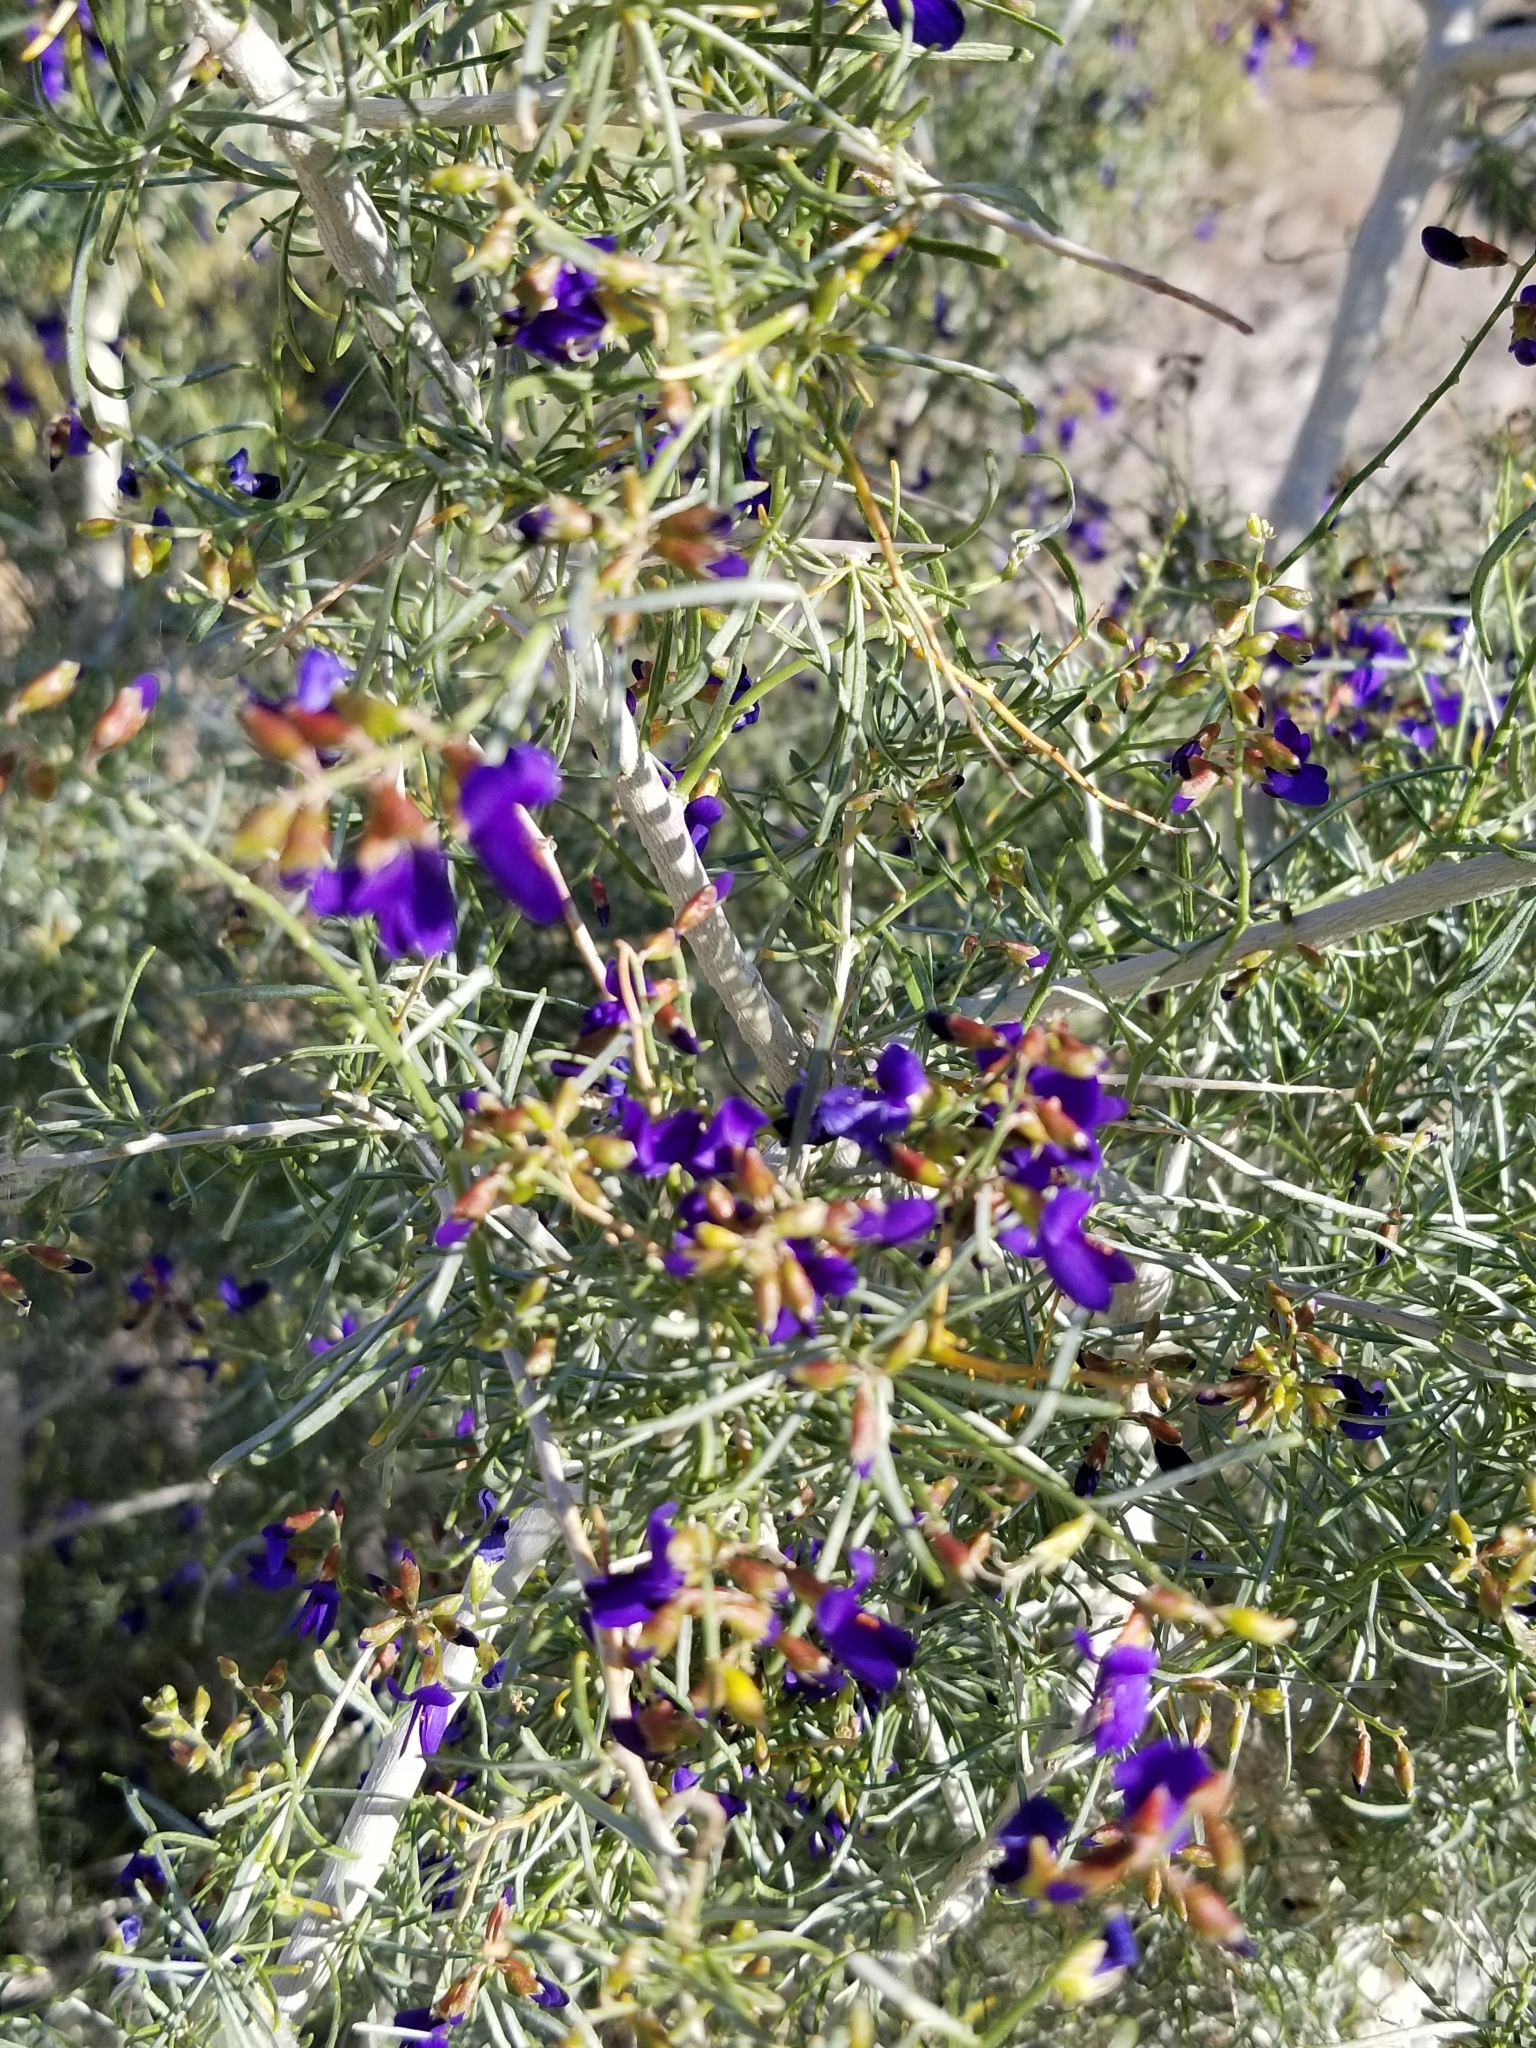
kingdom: Plantae
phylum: Tracheophyta
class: Magnoliopsida
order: Fabales
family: Fabaceae
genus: Psorothamnus
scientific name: Psorothamnus schottii
